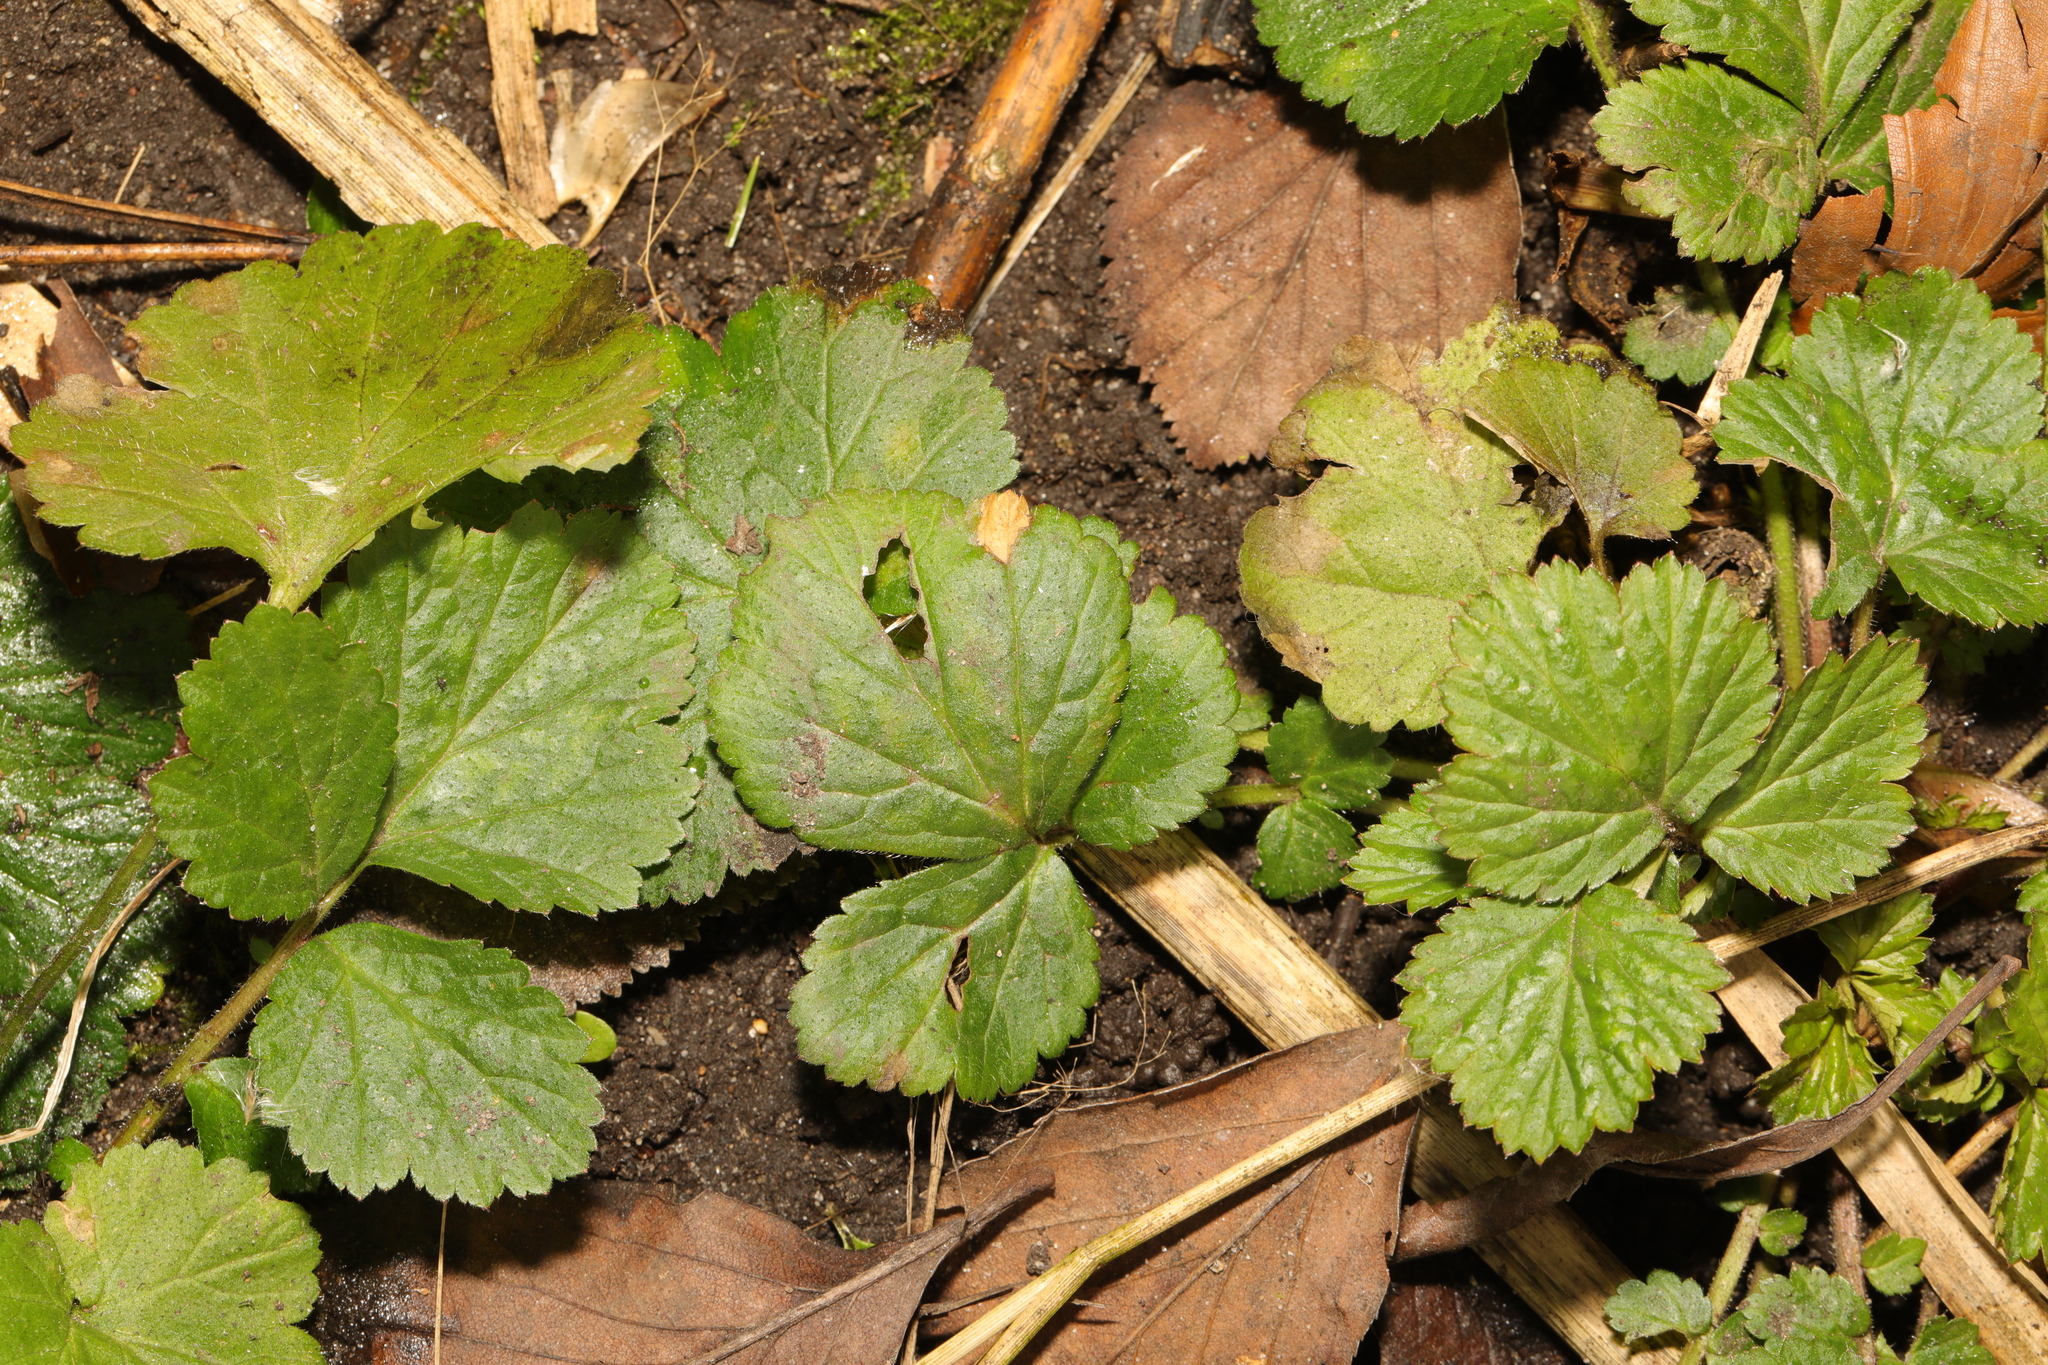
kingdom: Plantae
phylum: Tracheophyta
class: Magnoliopsida
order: Rosales
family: Rosaceae
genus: Geum
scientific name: Geum urbanum
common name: Wood avens
